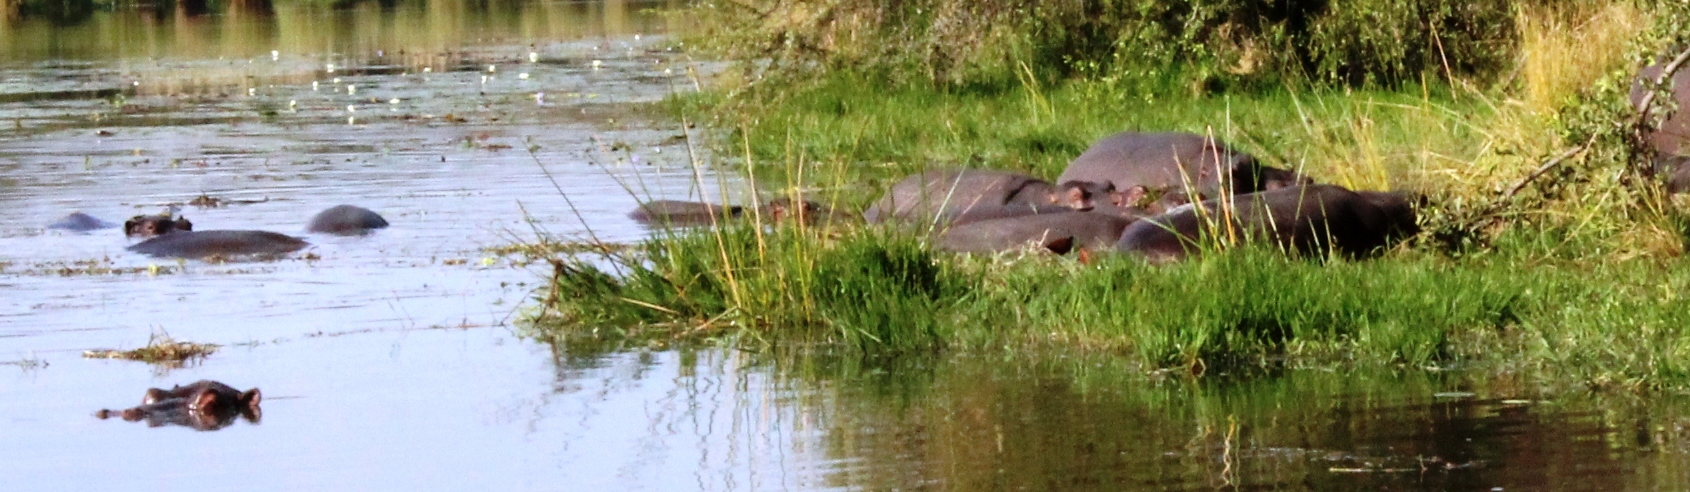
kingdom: Animalia
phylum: Chordata
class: Mammalia
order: Artiodactyla
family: Hippopotamidae
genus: Hippopotamus
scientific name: Hippopotamus amphibius
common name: Common hippopotamus
